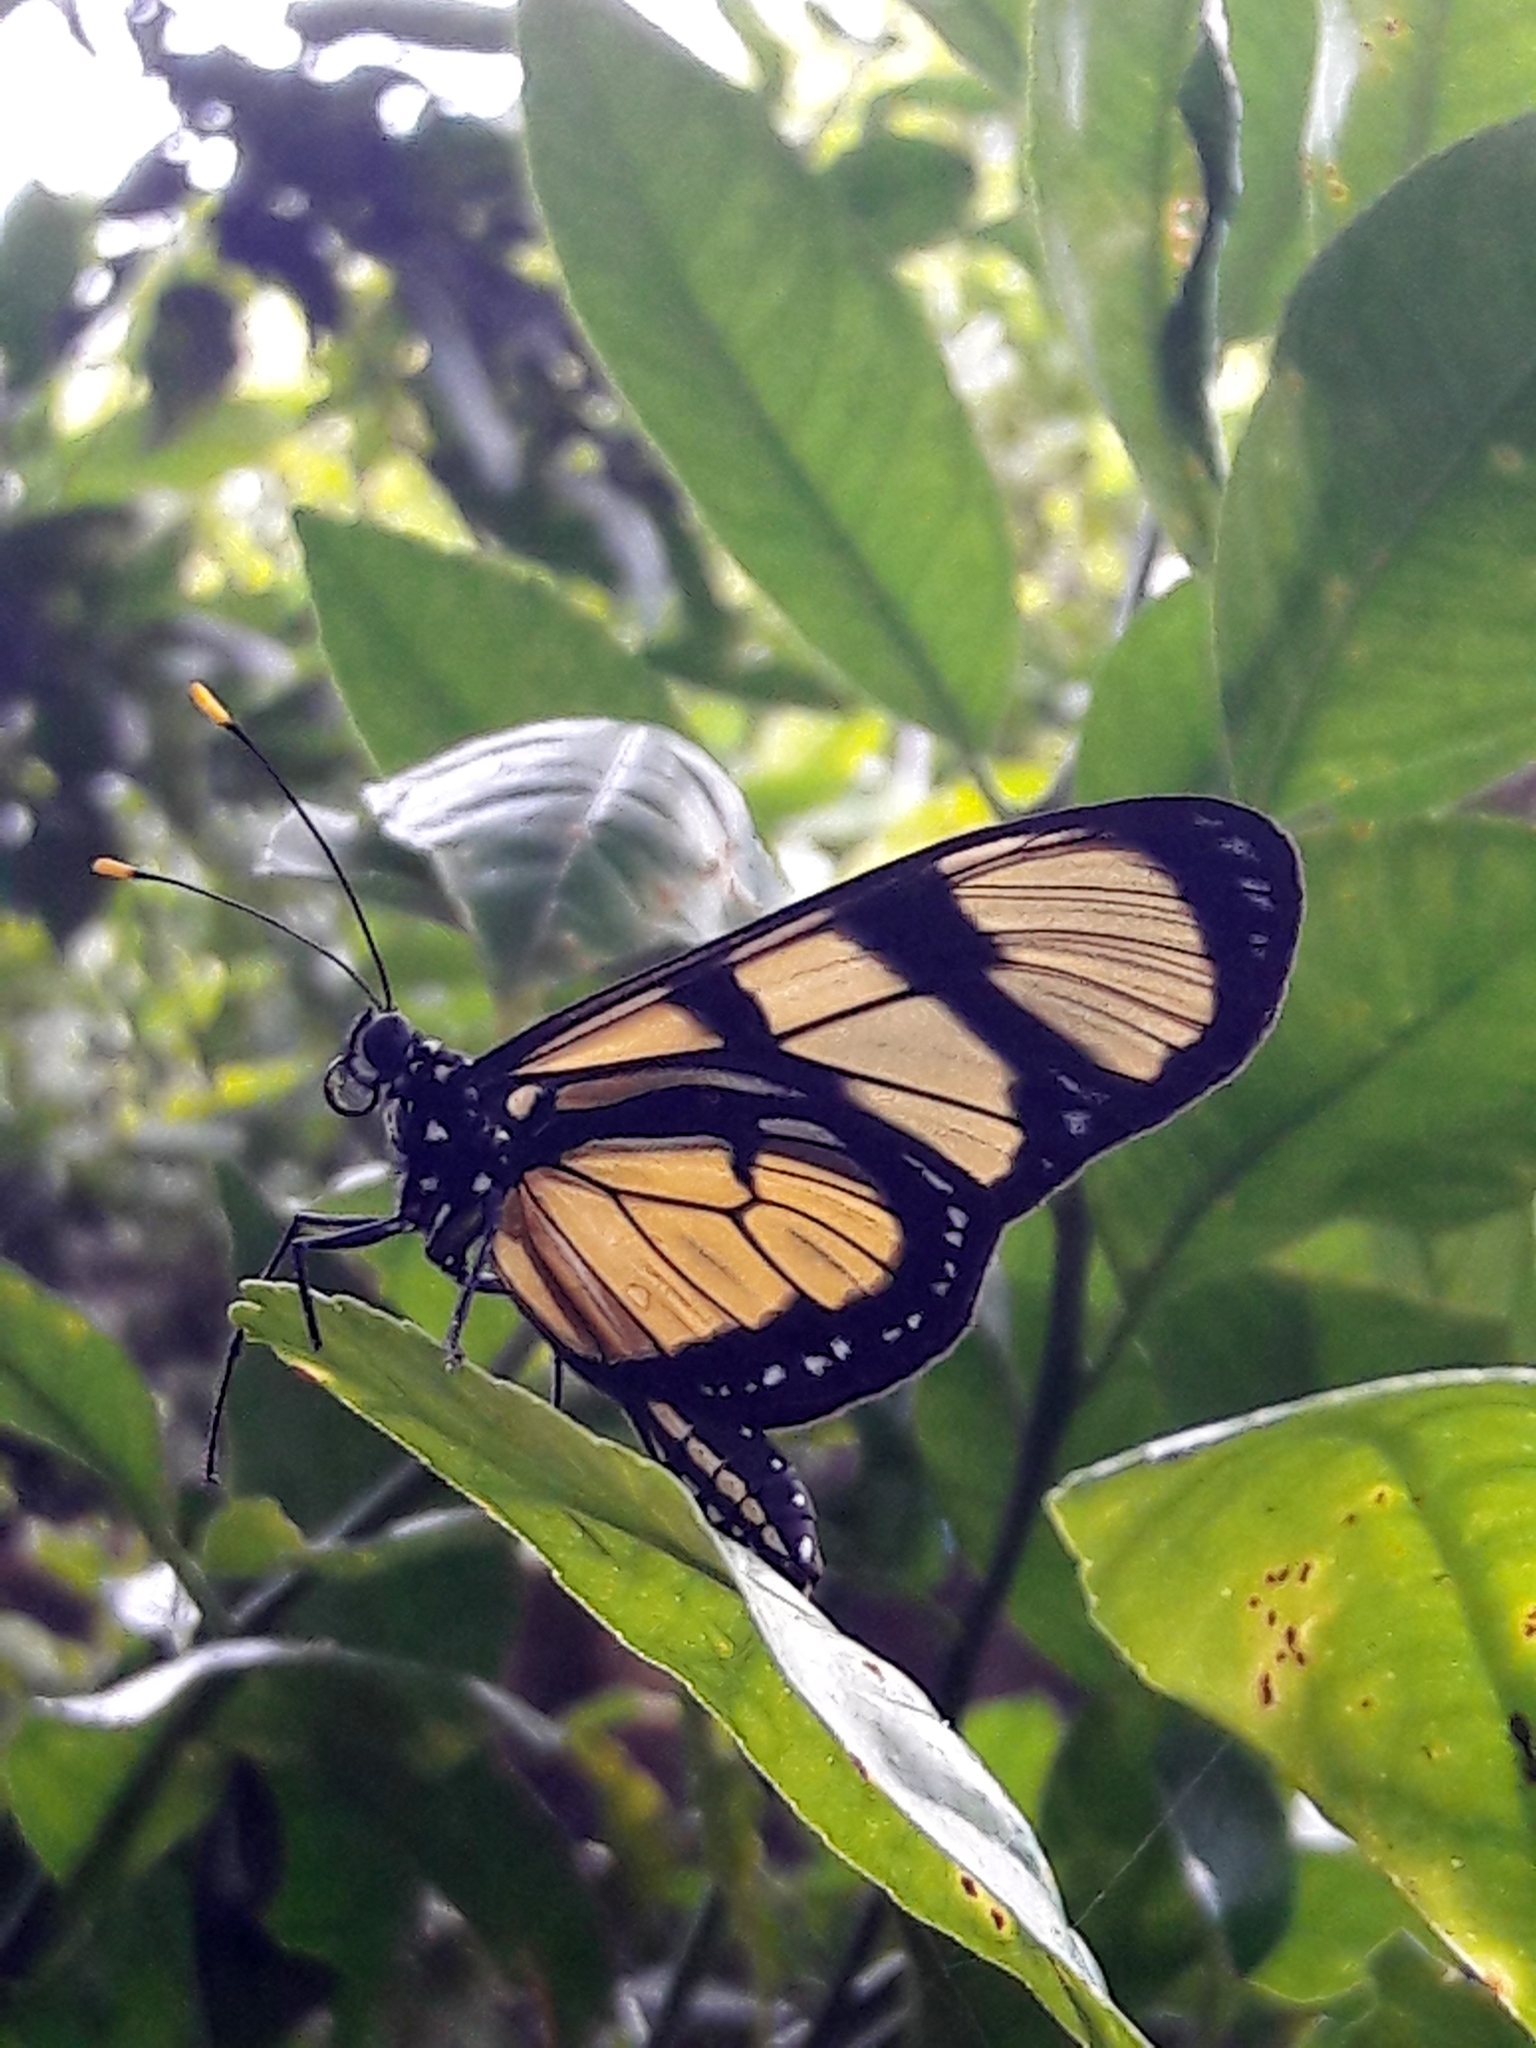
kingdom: Animalia
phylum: Arthropoda
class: Insecta
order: Lepidoptera
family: Nymphalidae
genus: Methona
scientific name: Methona themisto
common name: Themisto amberwing
